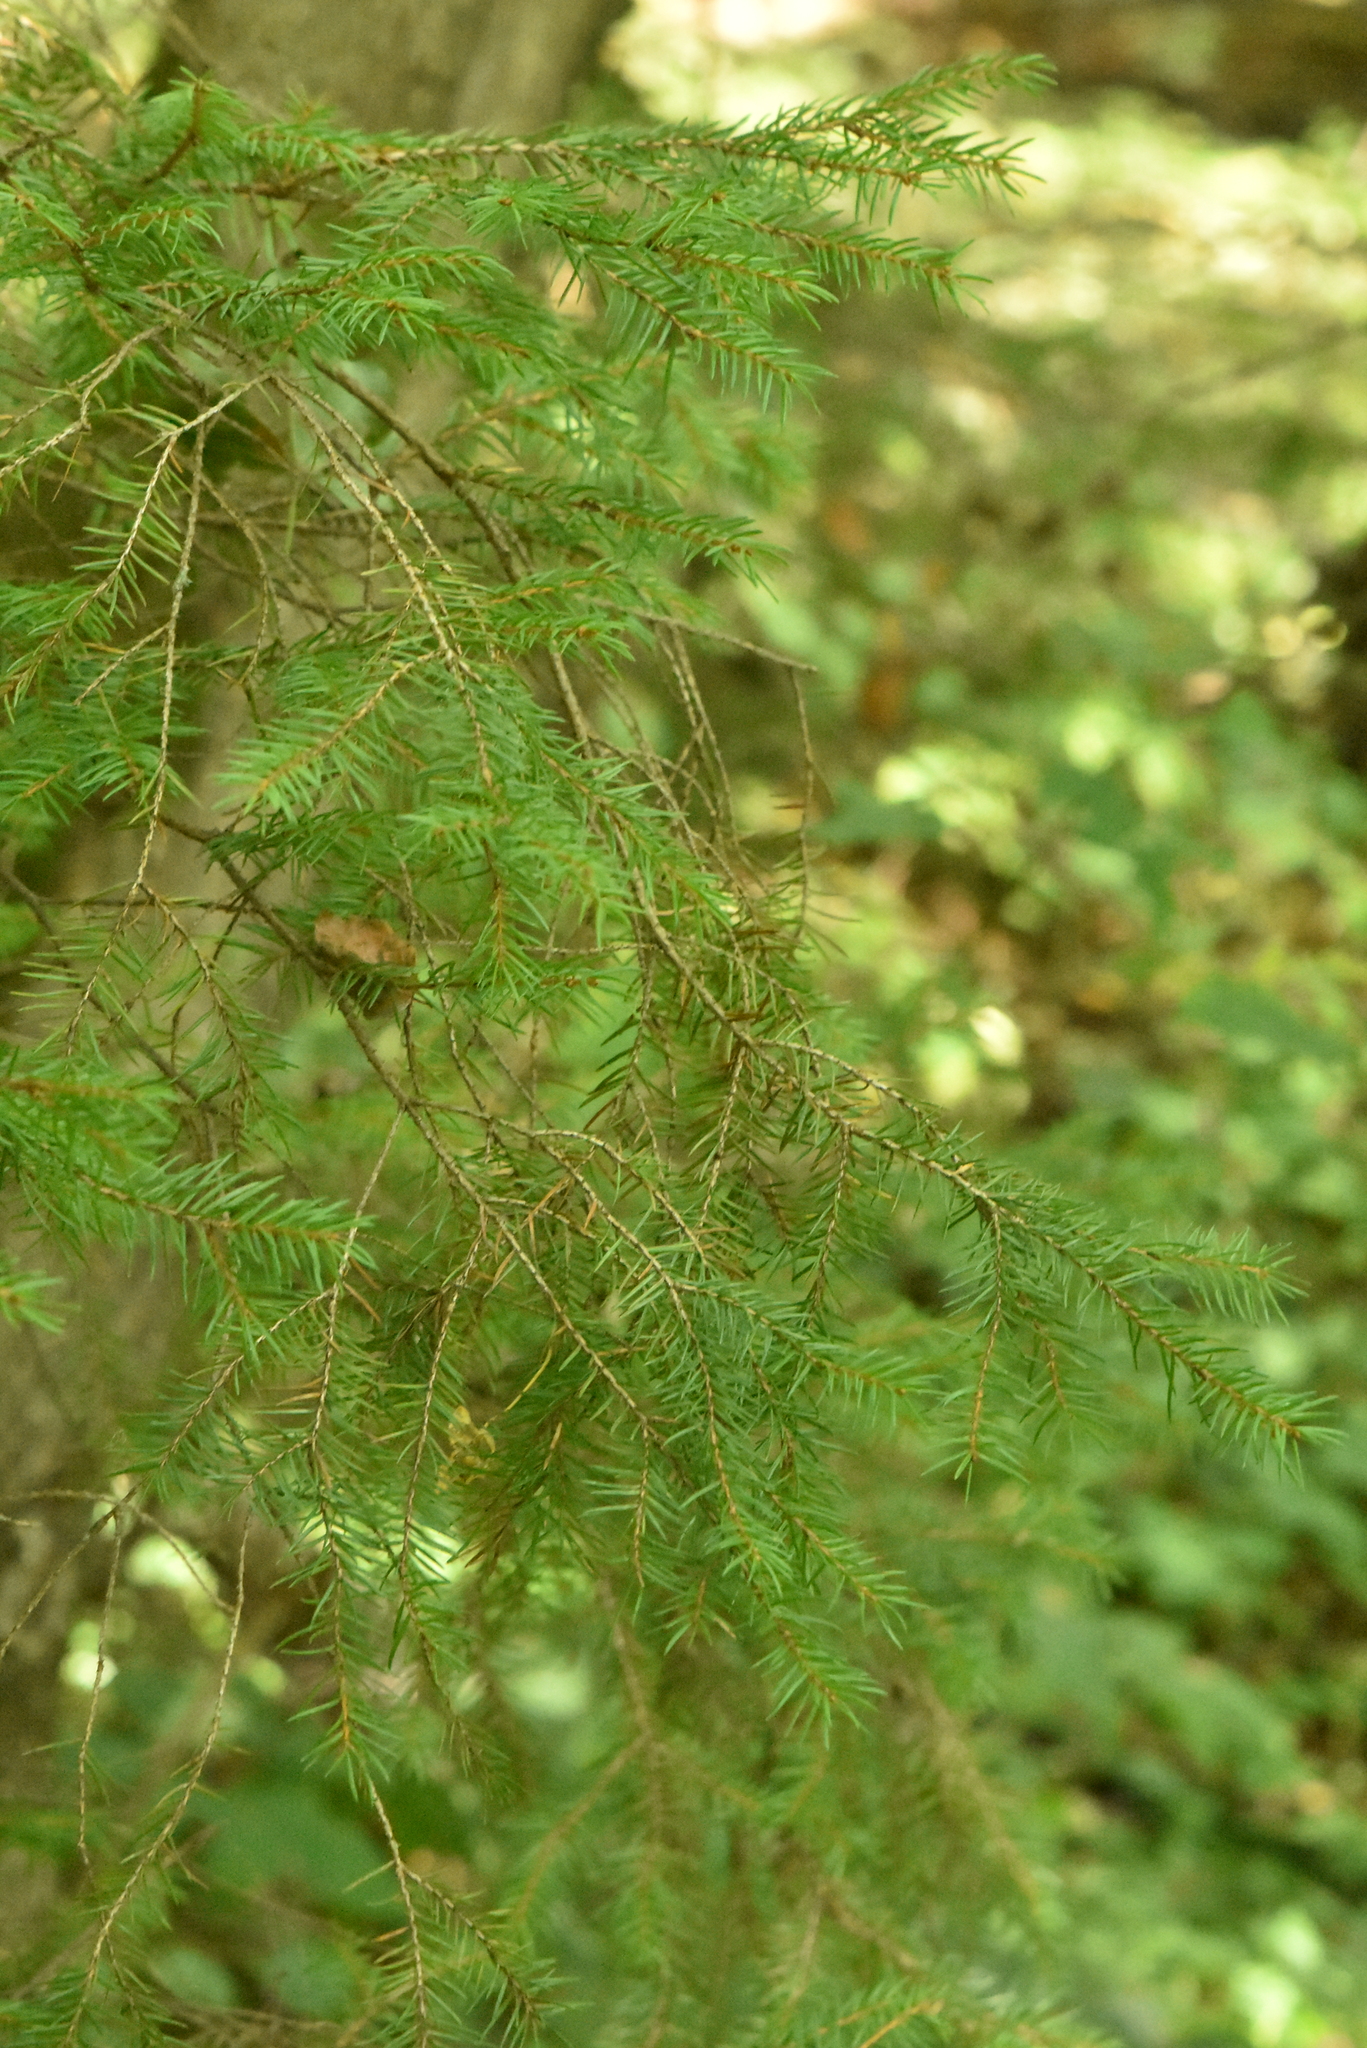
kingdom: Plantae
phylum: Tracheophyta
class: Pinopsida
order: Pinales
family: Pinaceae
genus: Picea
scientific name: Picea abies
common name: Norway spruce
